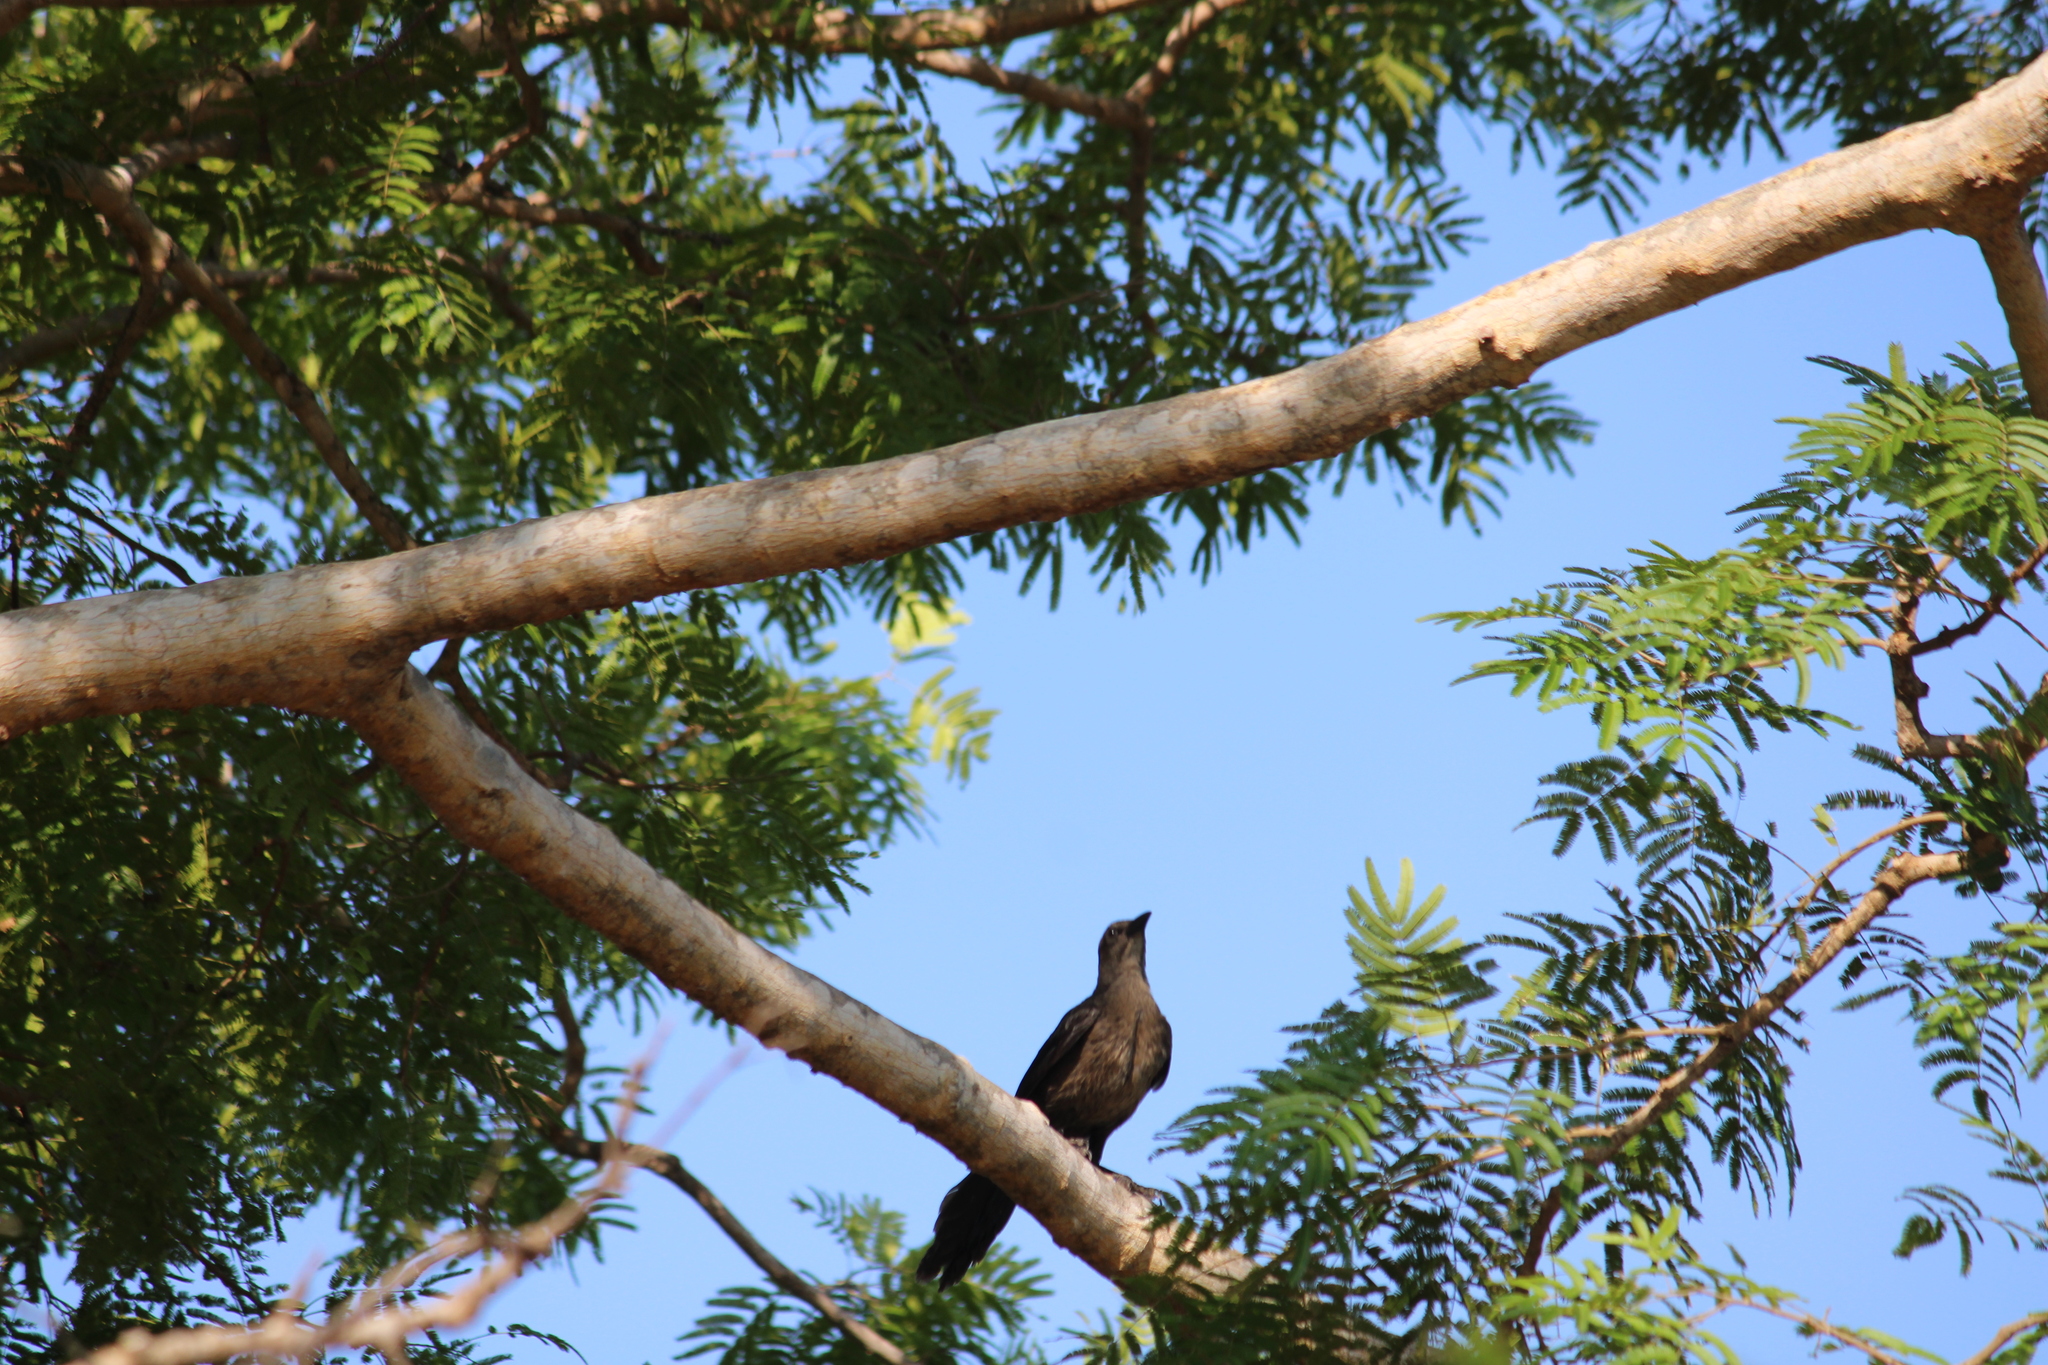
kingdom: Animalia
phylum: Chordata
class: Aves
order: Passeriformes
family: Icteridae
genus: Quiscalus
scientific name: Quiscalus mexicanus
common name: Great-tailed grackle
